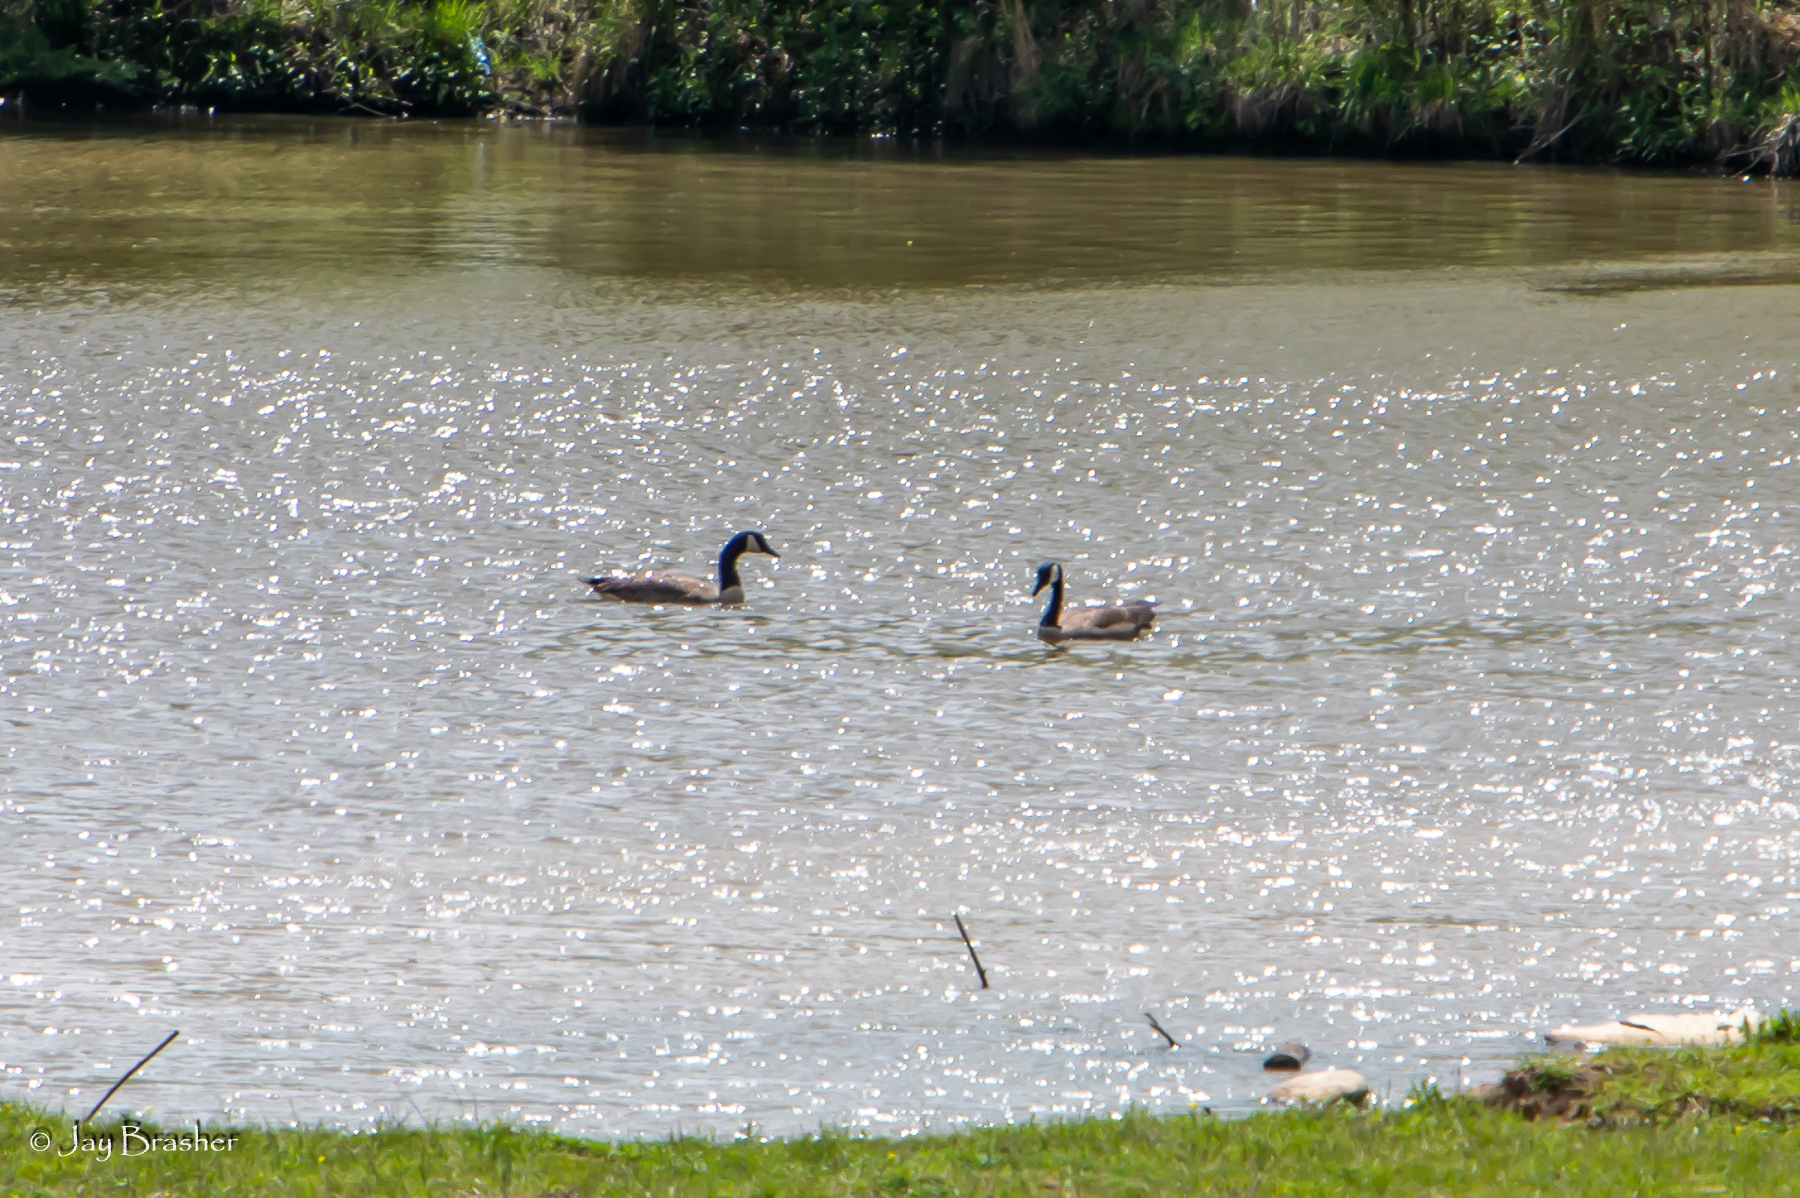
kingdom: Animalia
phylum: Chordata
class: Aves
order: Anseriformes
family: Anatidae
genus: Branta
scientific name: Branta canadensis
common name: Canada goose
